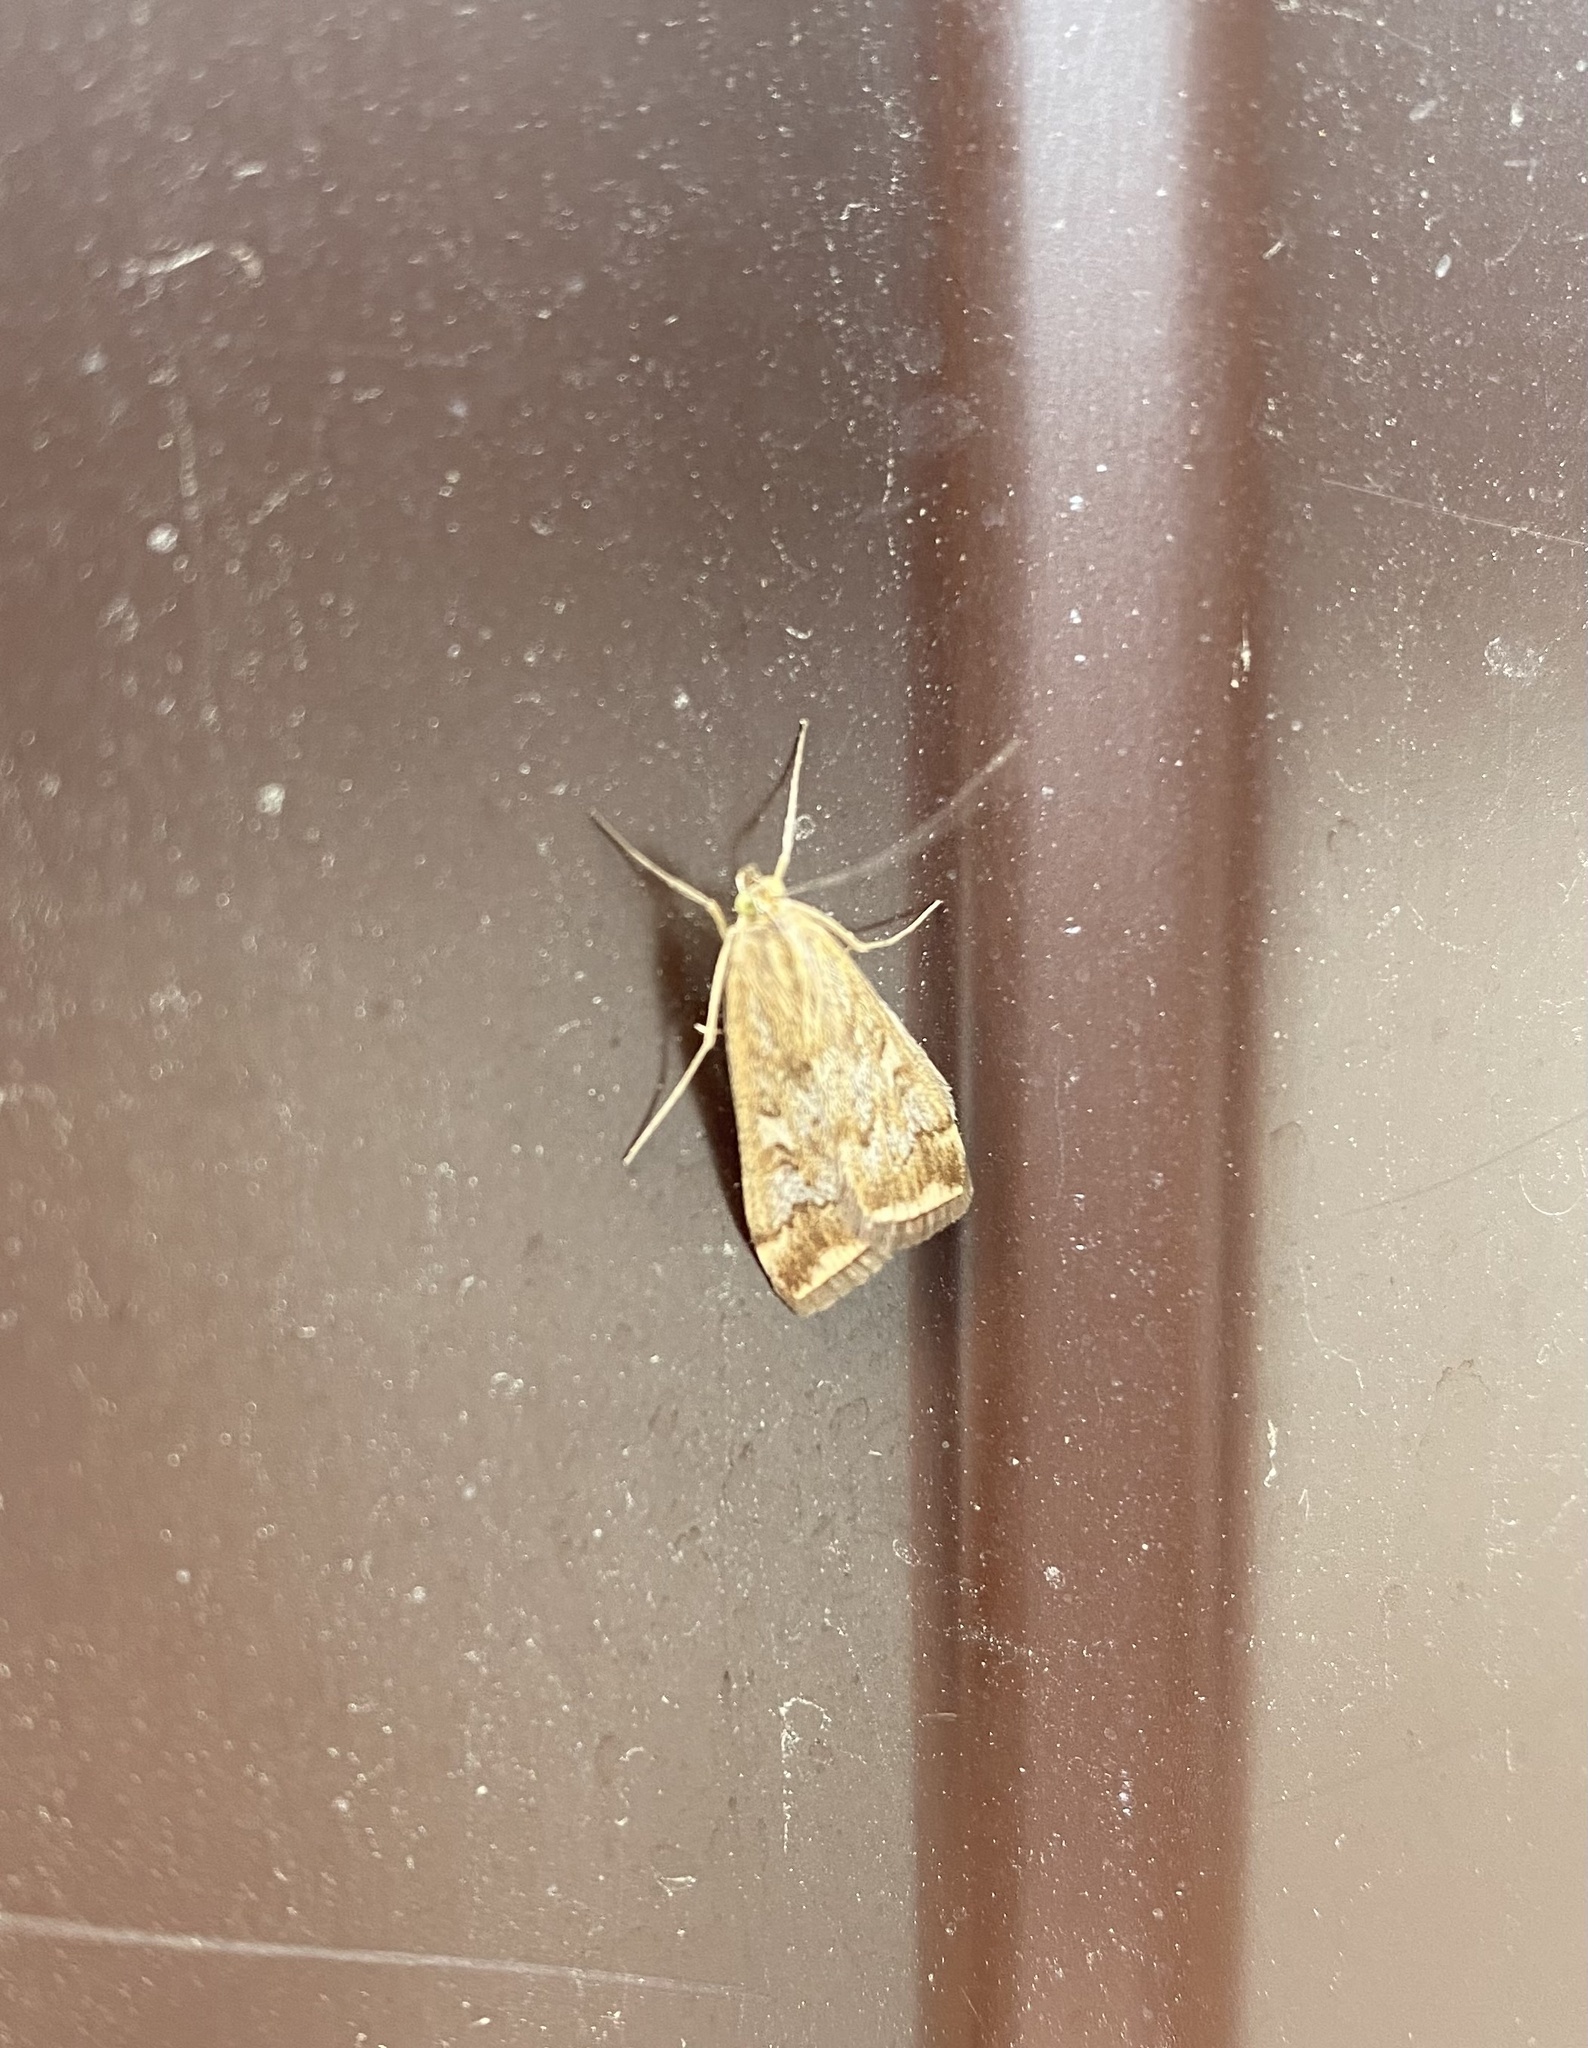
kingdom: Animalia
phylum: Arthropoda
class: Insecta
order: Lepidoptera
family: Crambidae
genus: Loxostege
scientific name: Loxostege sticticalis
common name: Crambid moth
